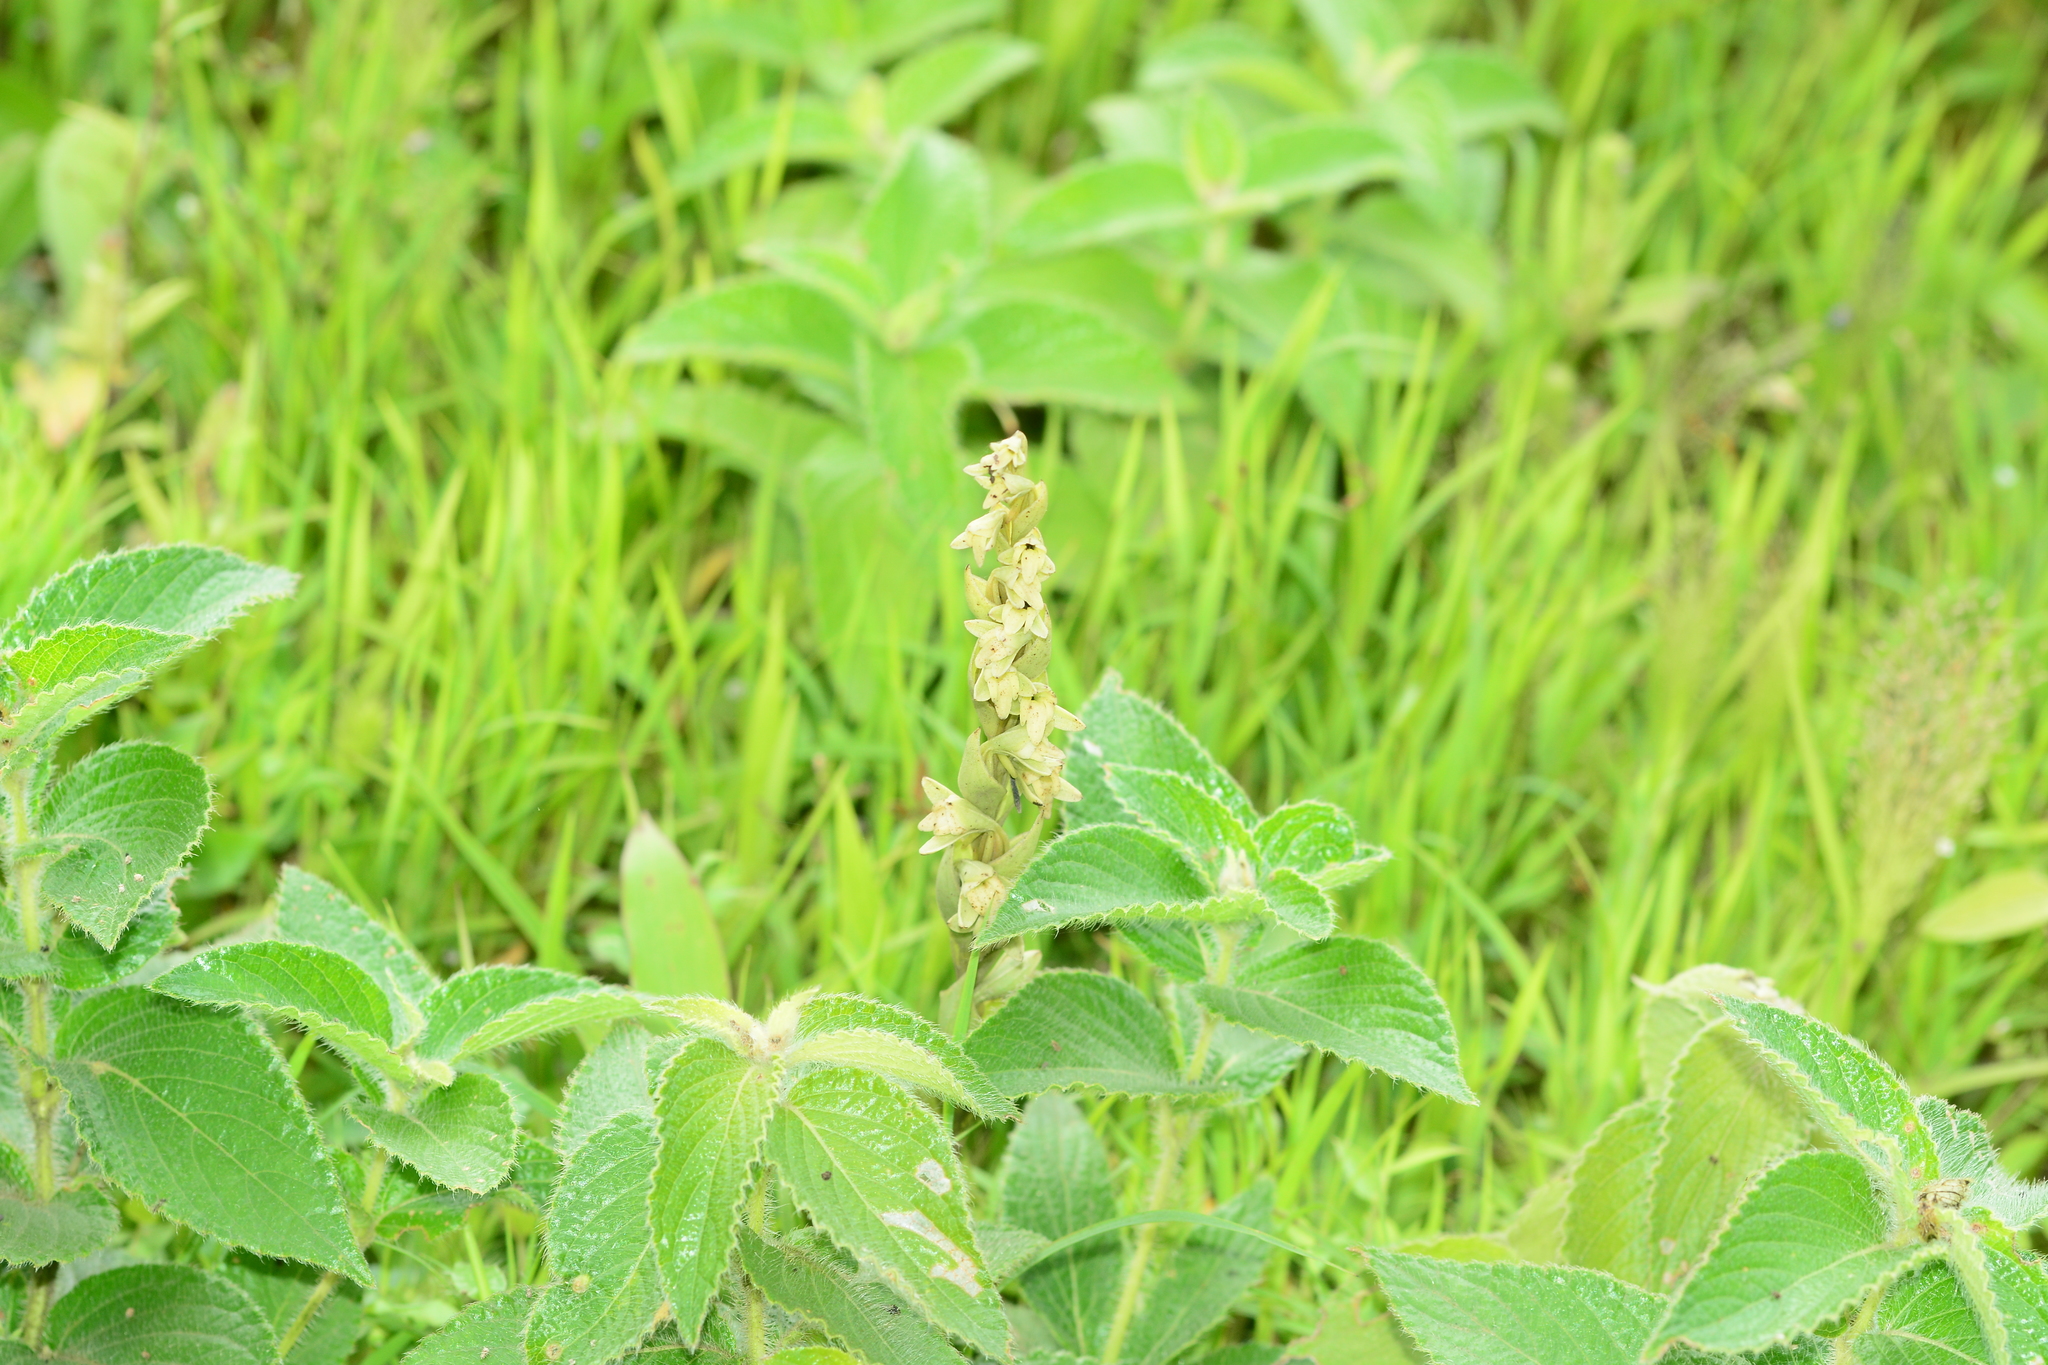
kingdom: Plantae
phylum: Tracheophyta
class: Liliopsida
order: Asparagales
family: Orchidaceae
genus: Habenaria
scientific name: Habenaria heyneana
